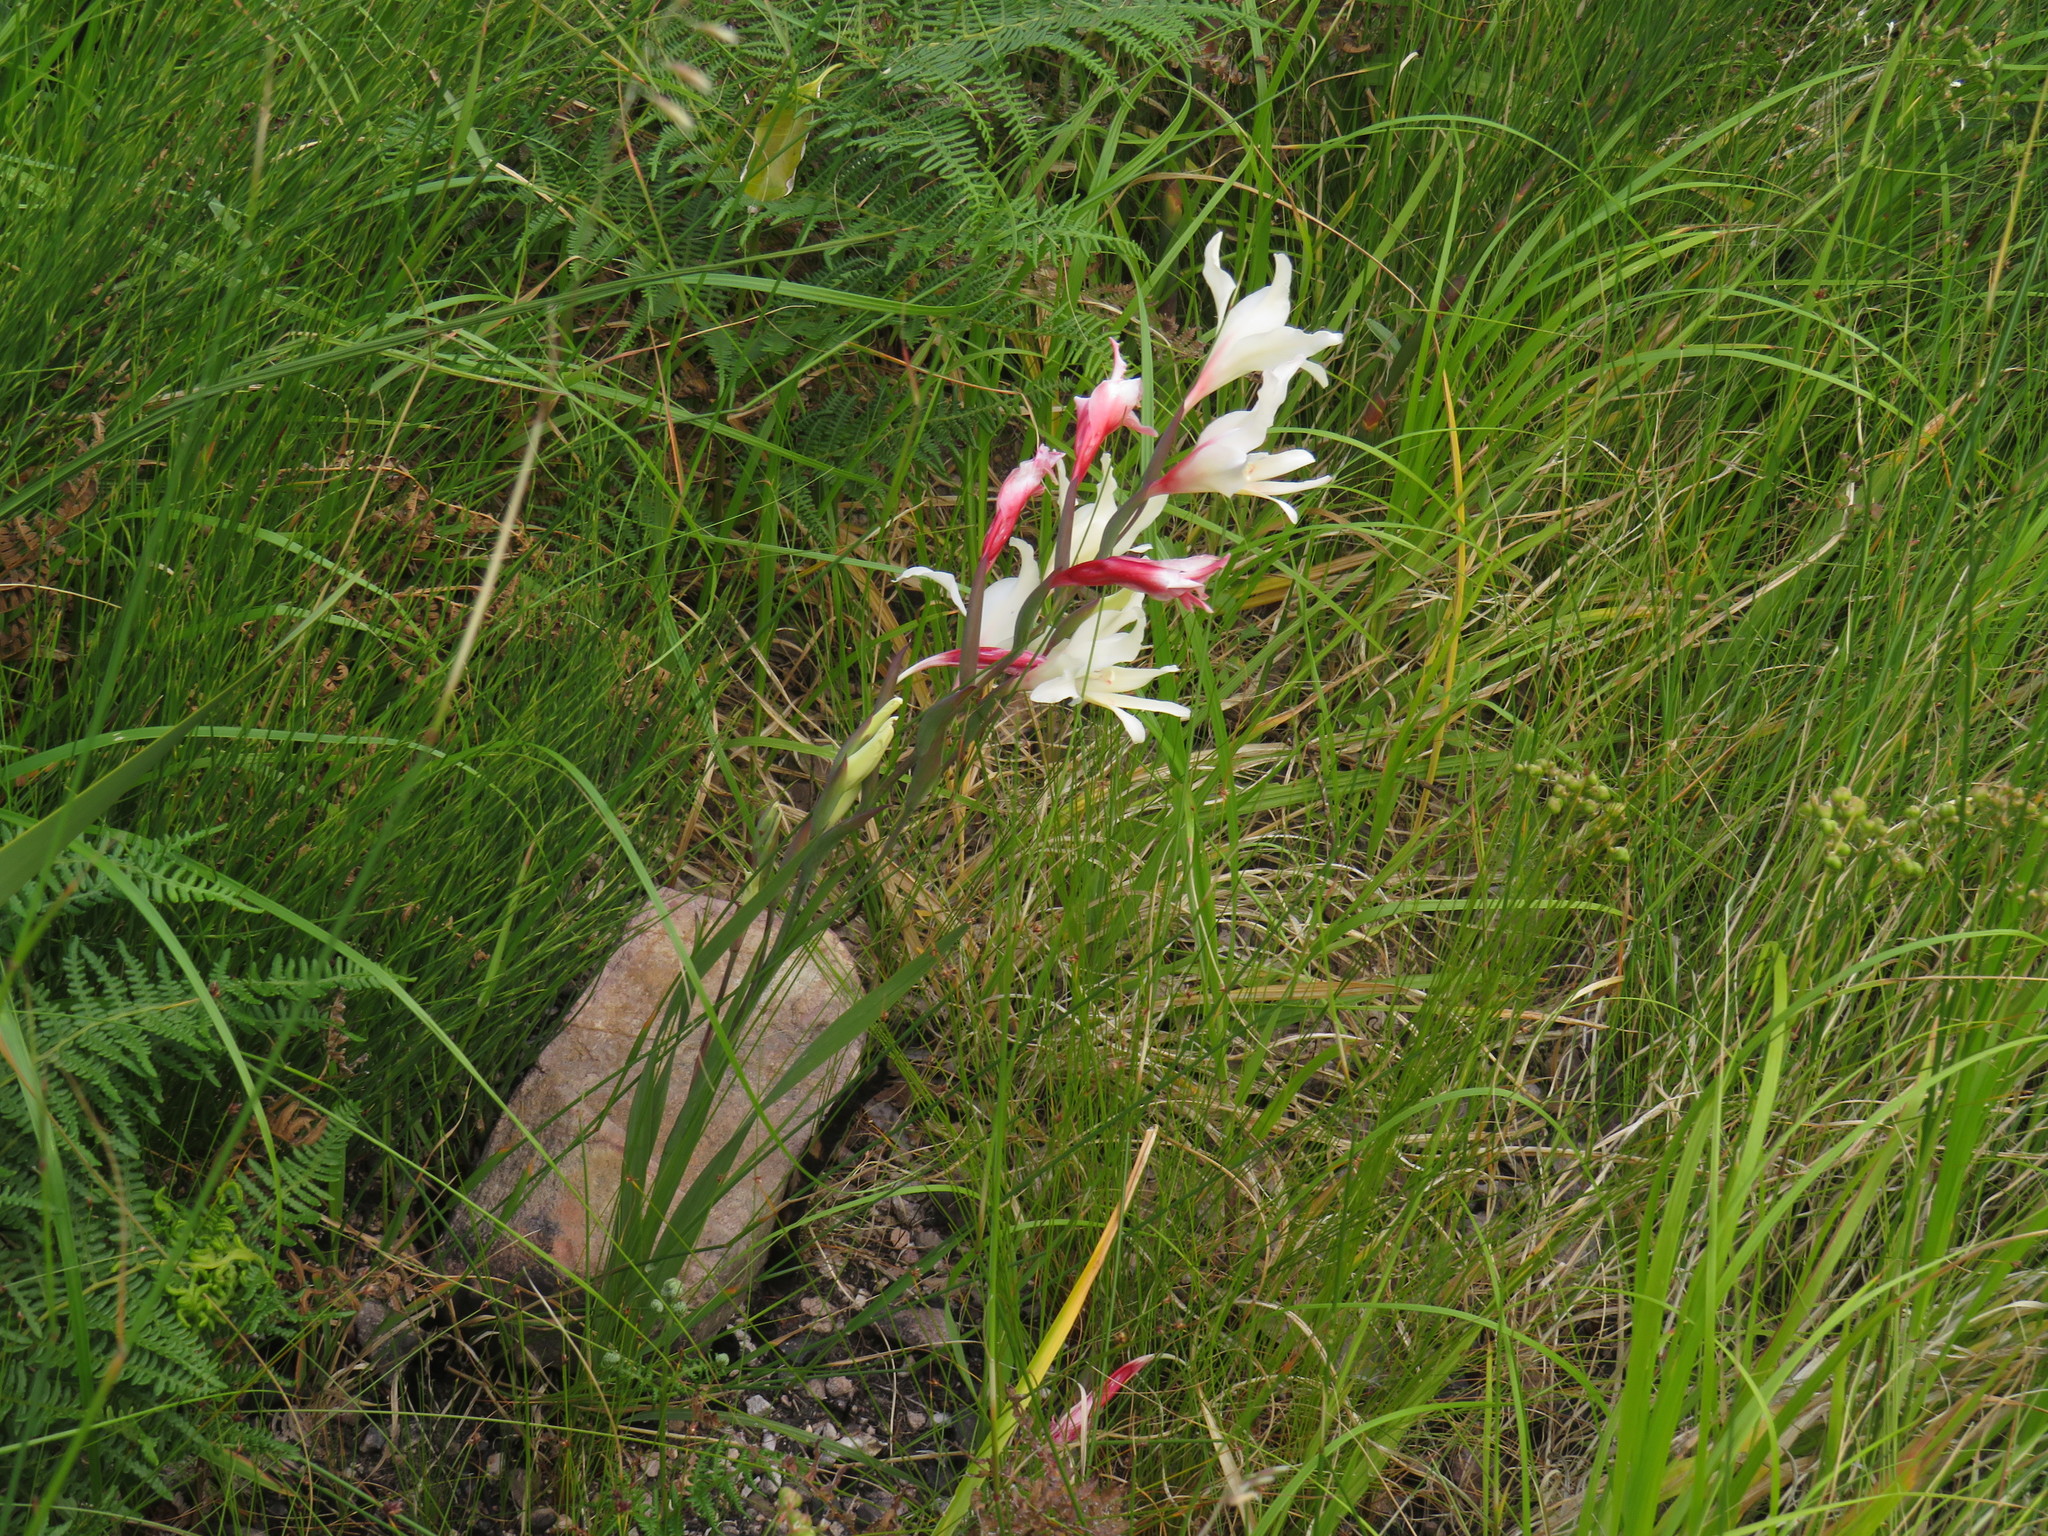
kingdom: Plantae
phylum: Tracheophyta
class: Liliopsida
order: Asparagales
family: Iridaceae
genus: Gladiolus
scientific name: Gladiolus carneus
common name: Painted-lady
